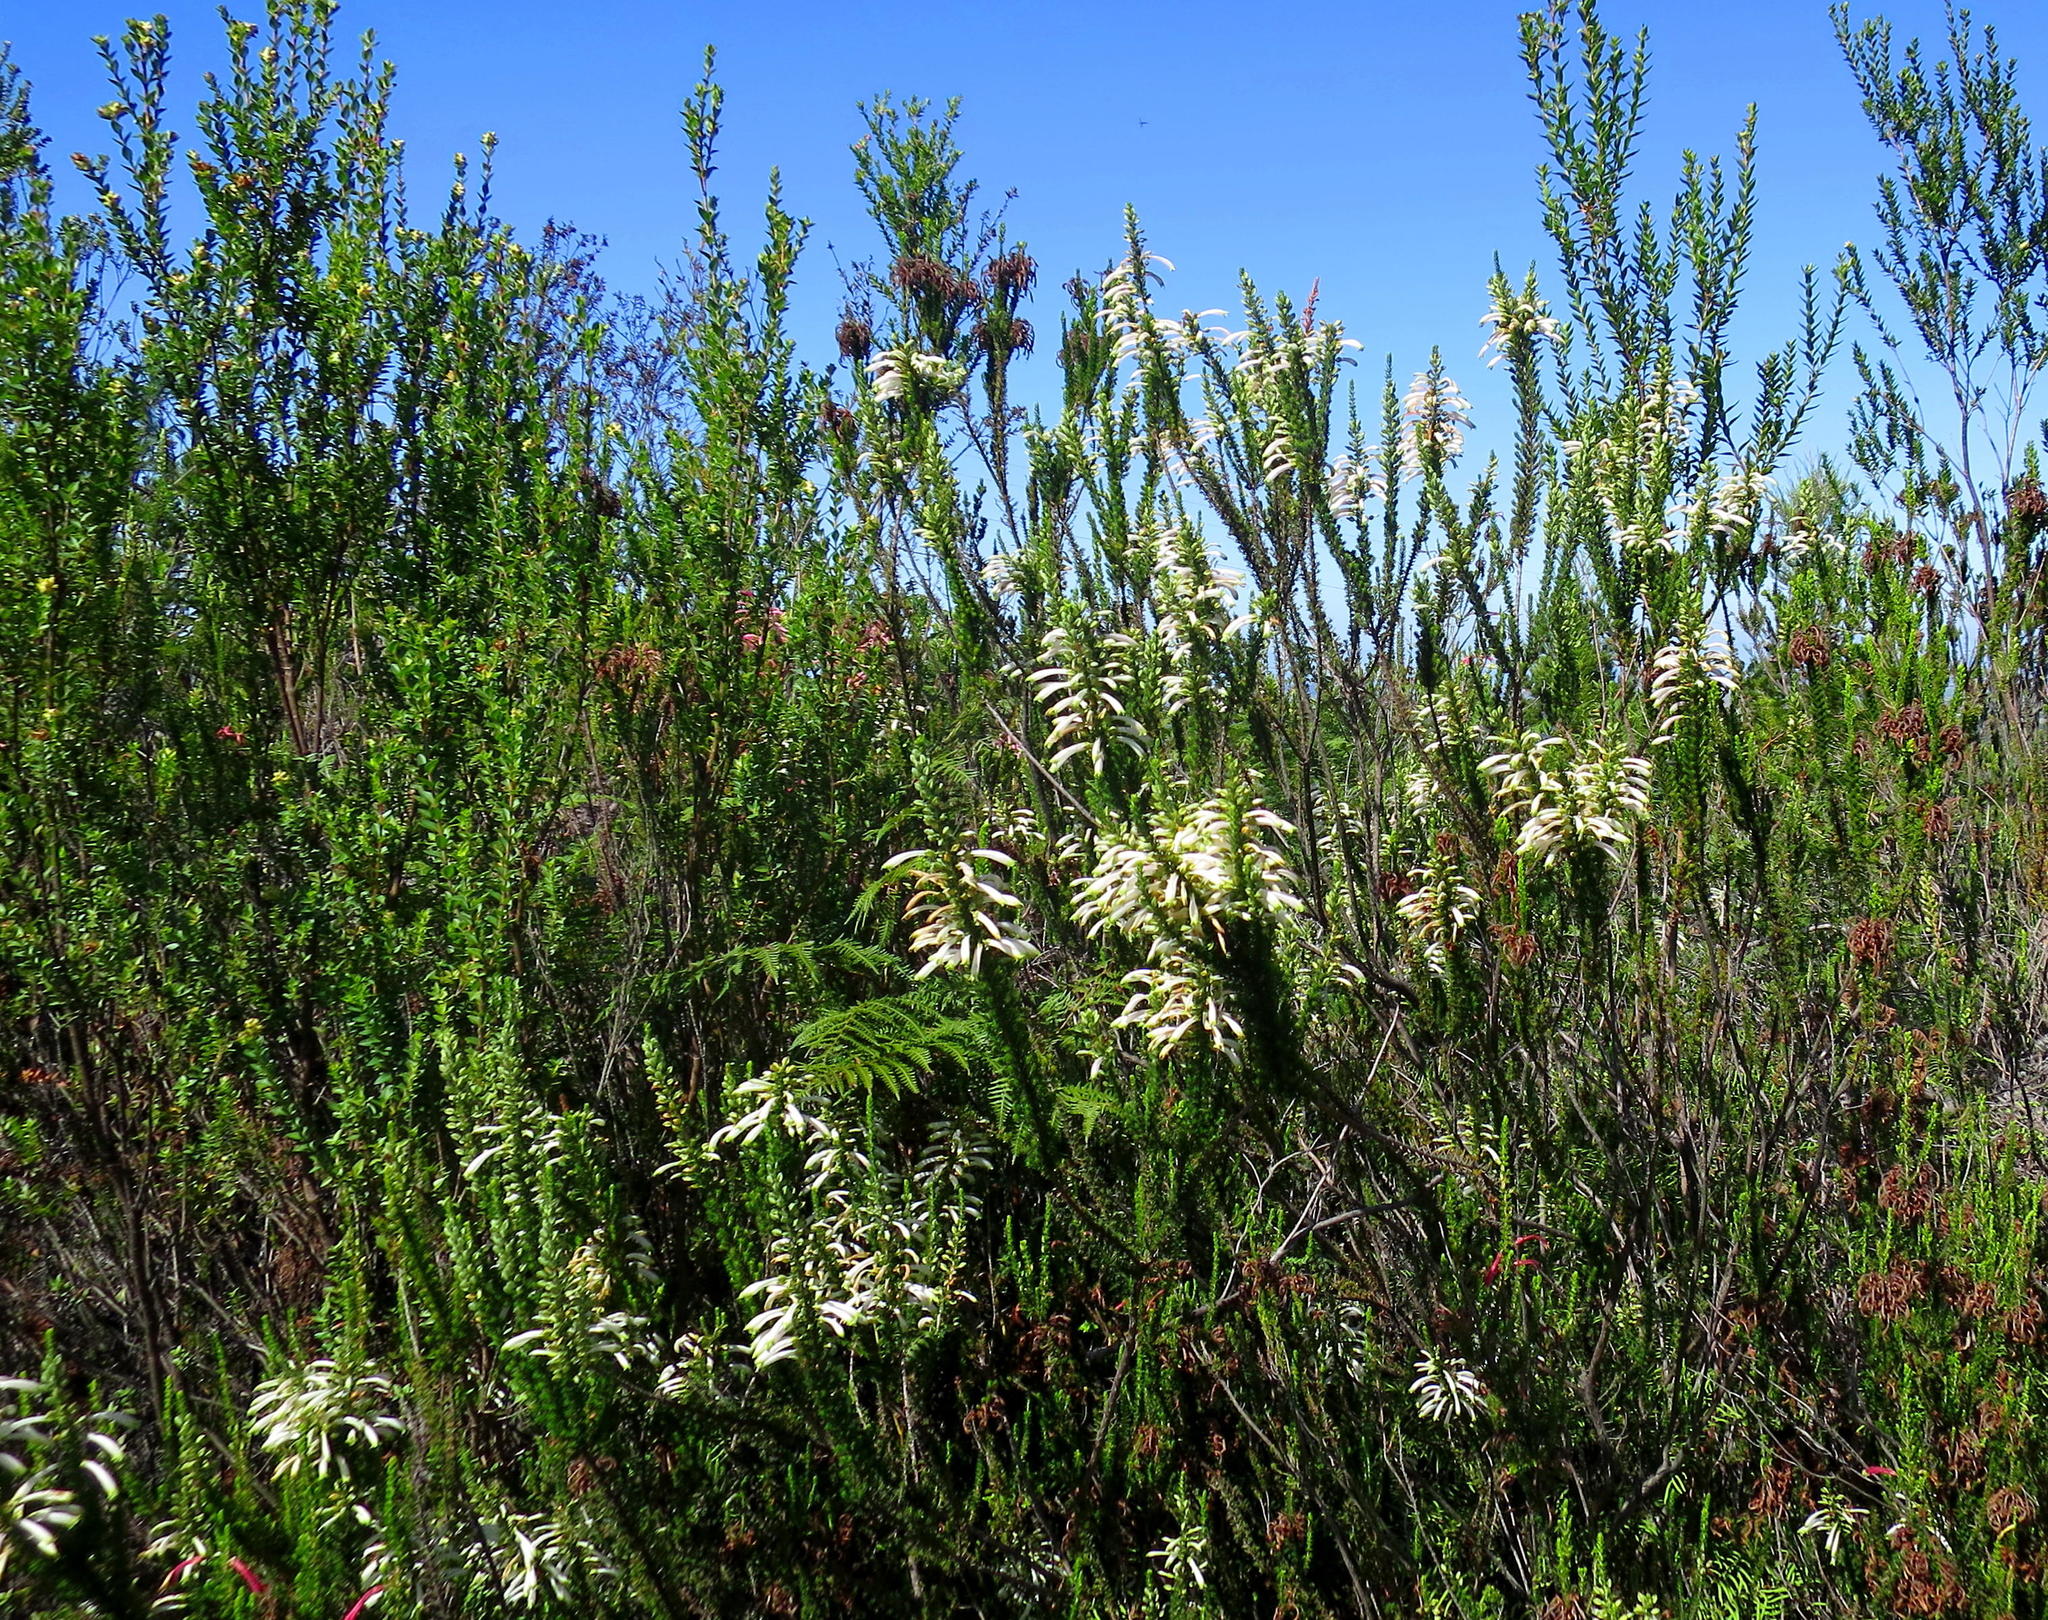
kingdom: Plantae
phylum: Tracheophyta
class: Magnoliopsida
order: Ericales
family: Ericaceae
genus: Erica
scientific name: Erica densifolia
